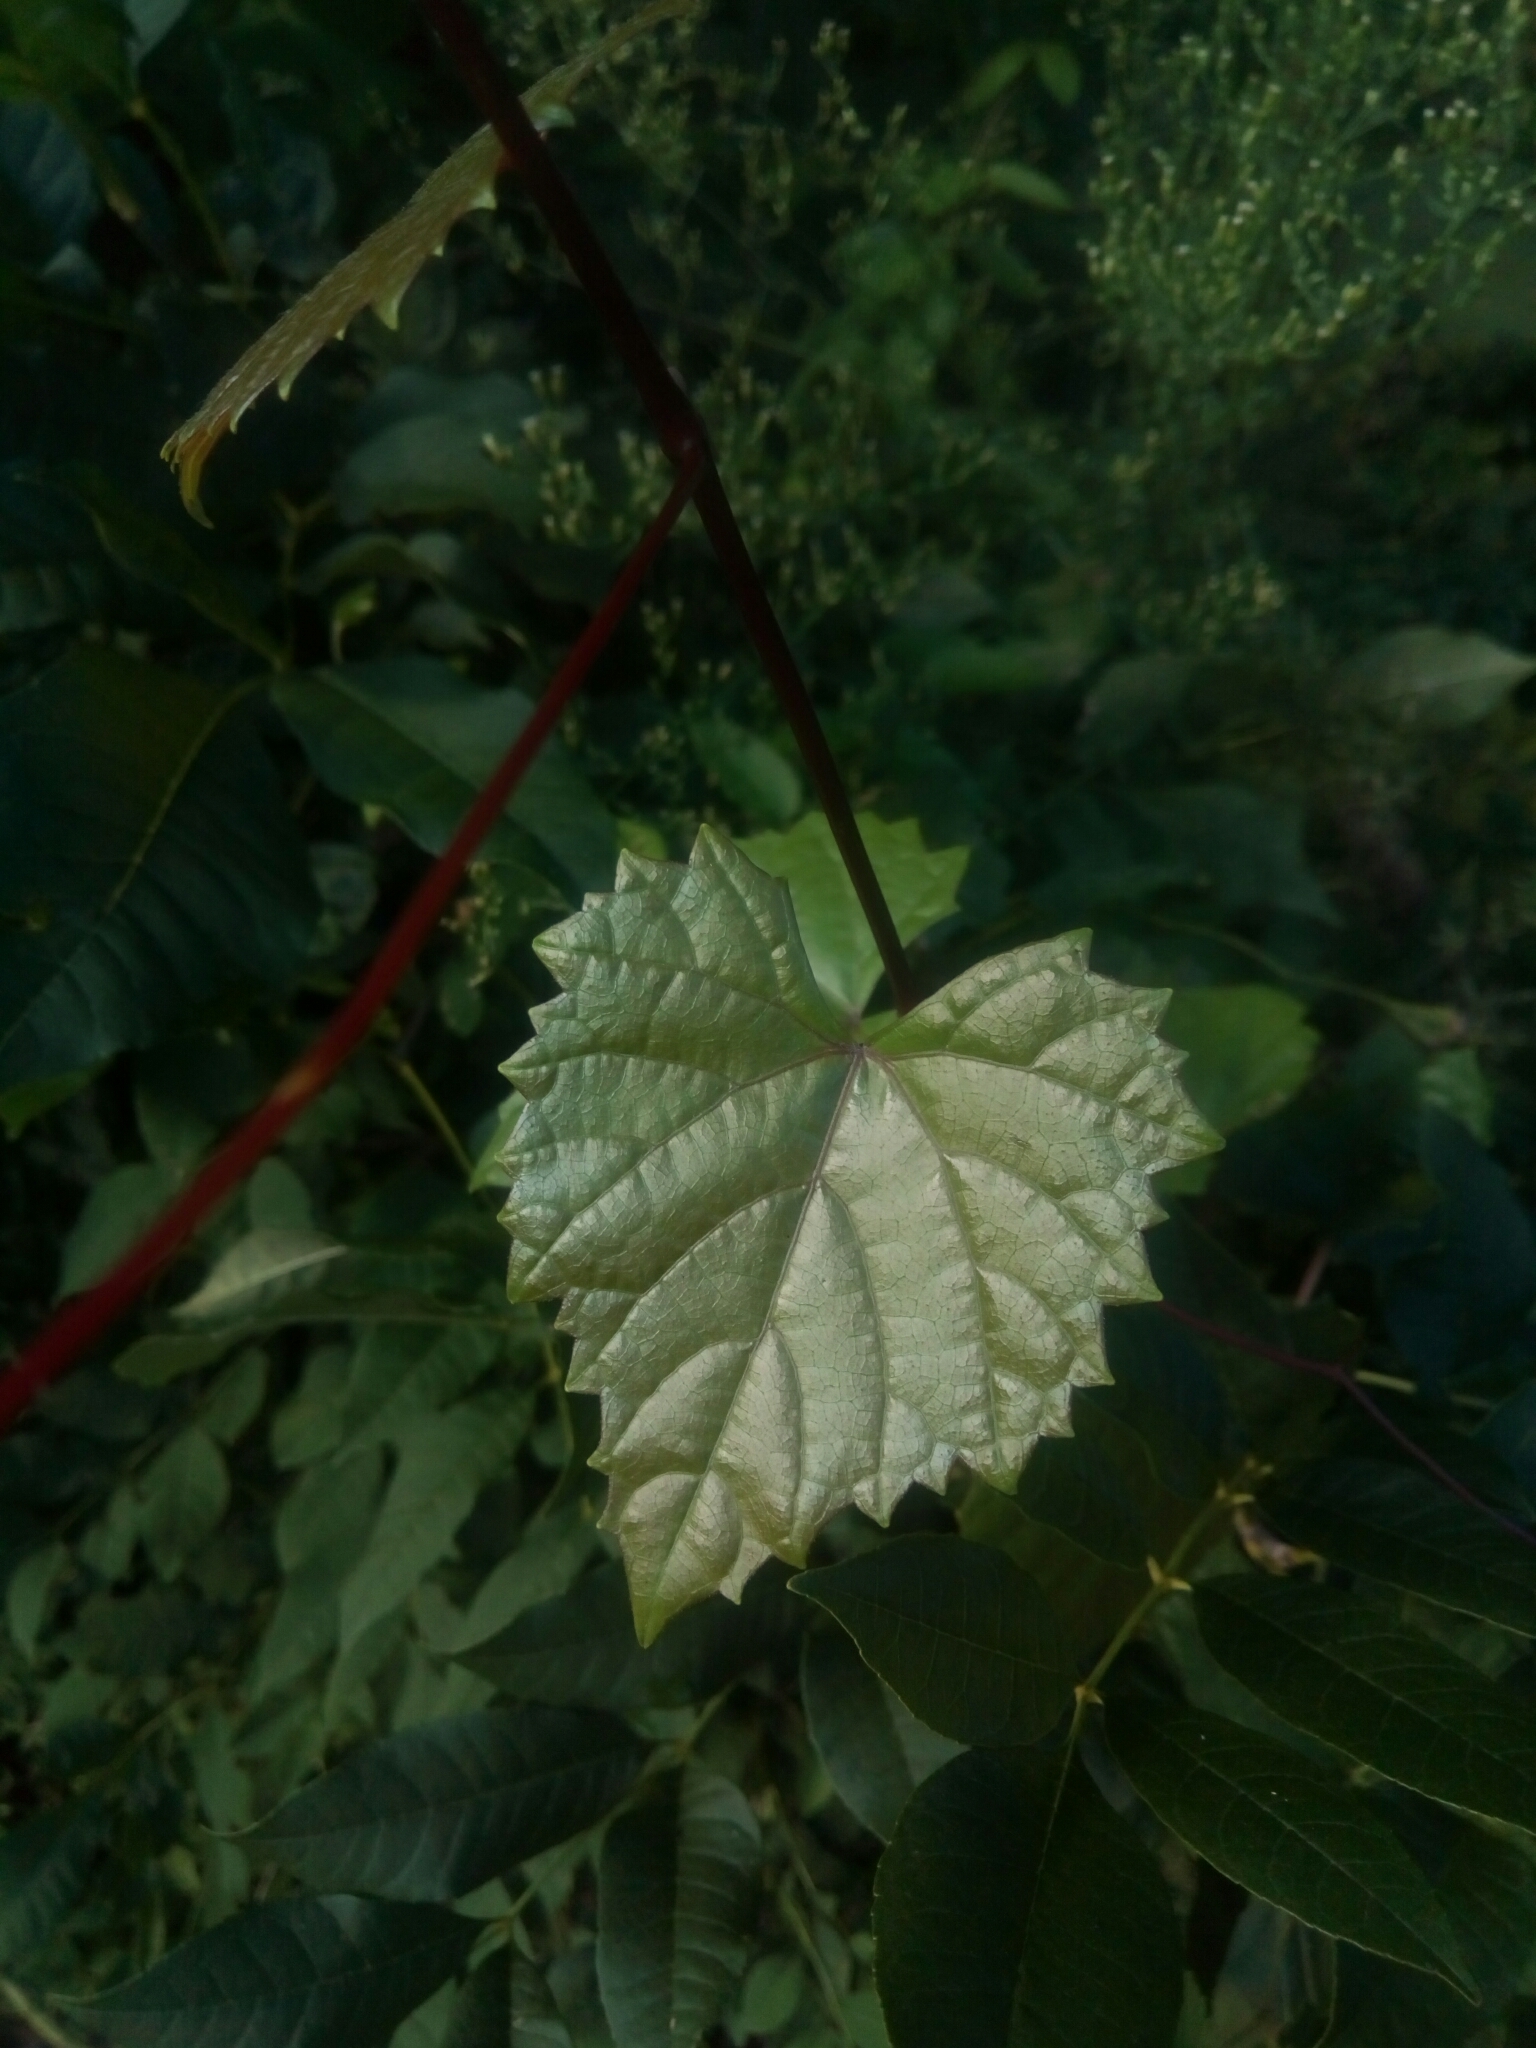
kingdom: Plantae
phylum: Tracheophyta
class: Magnoliopsida
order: Vitales
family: Vitaceae
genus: Vitis
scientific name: Vitis rotundifolia
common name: Muscadine grape
